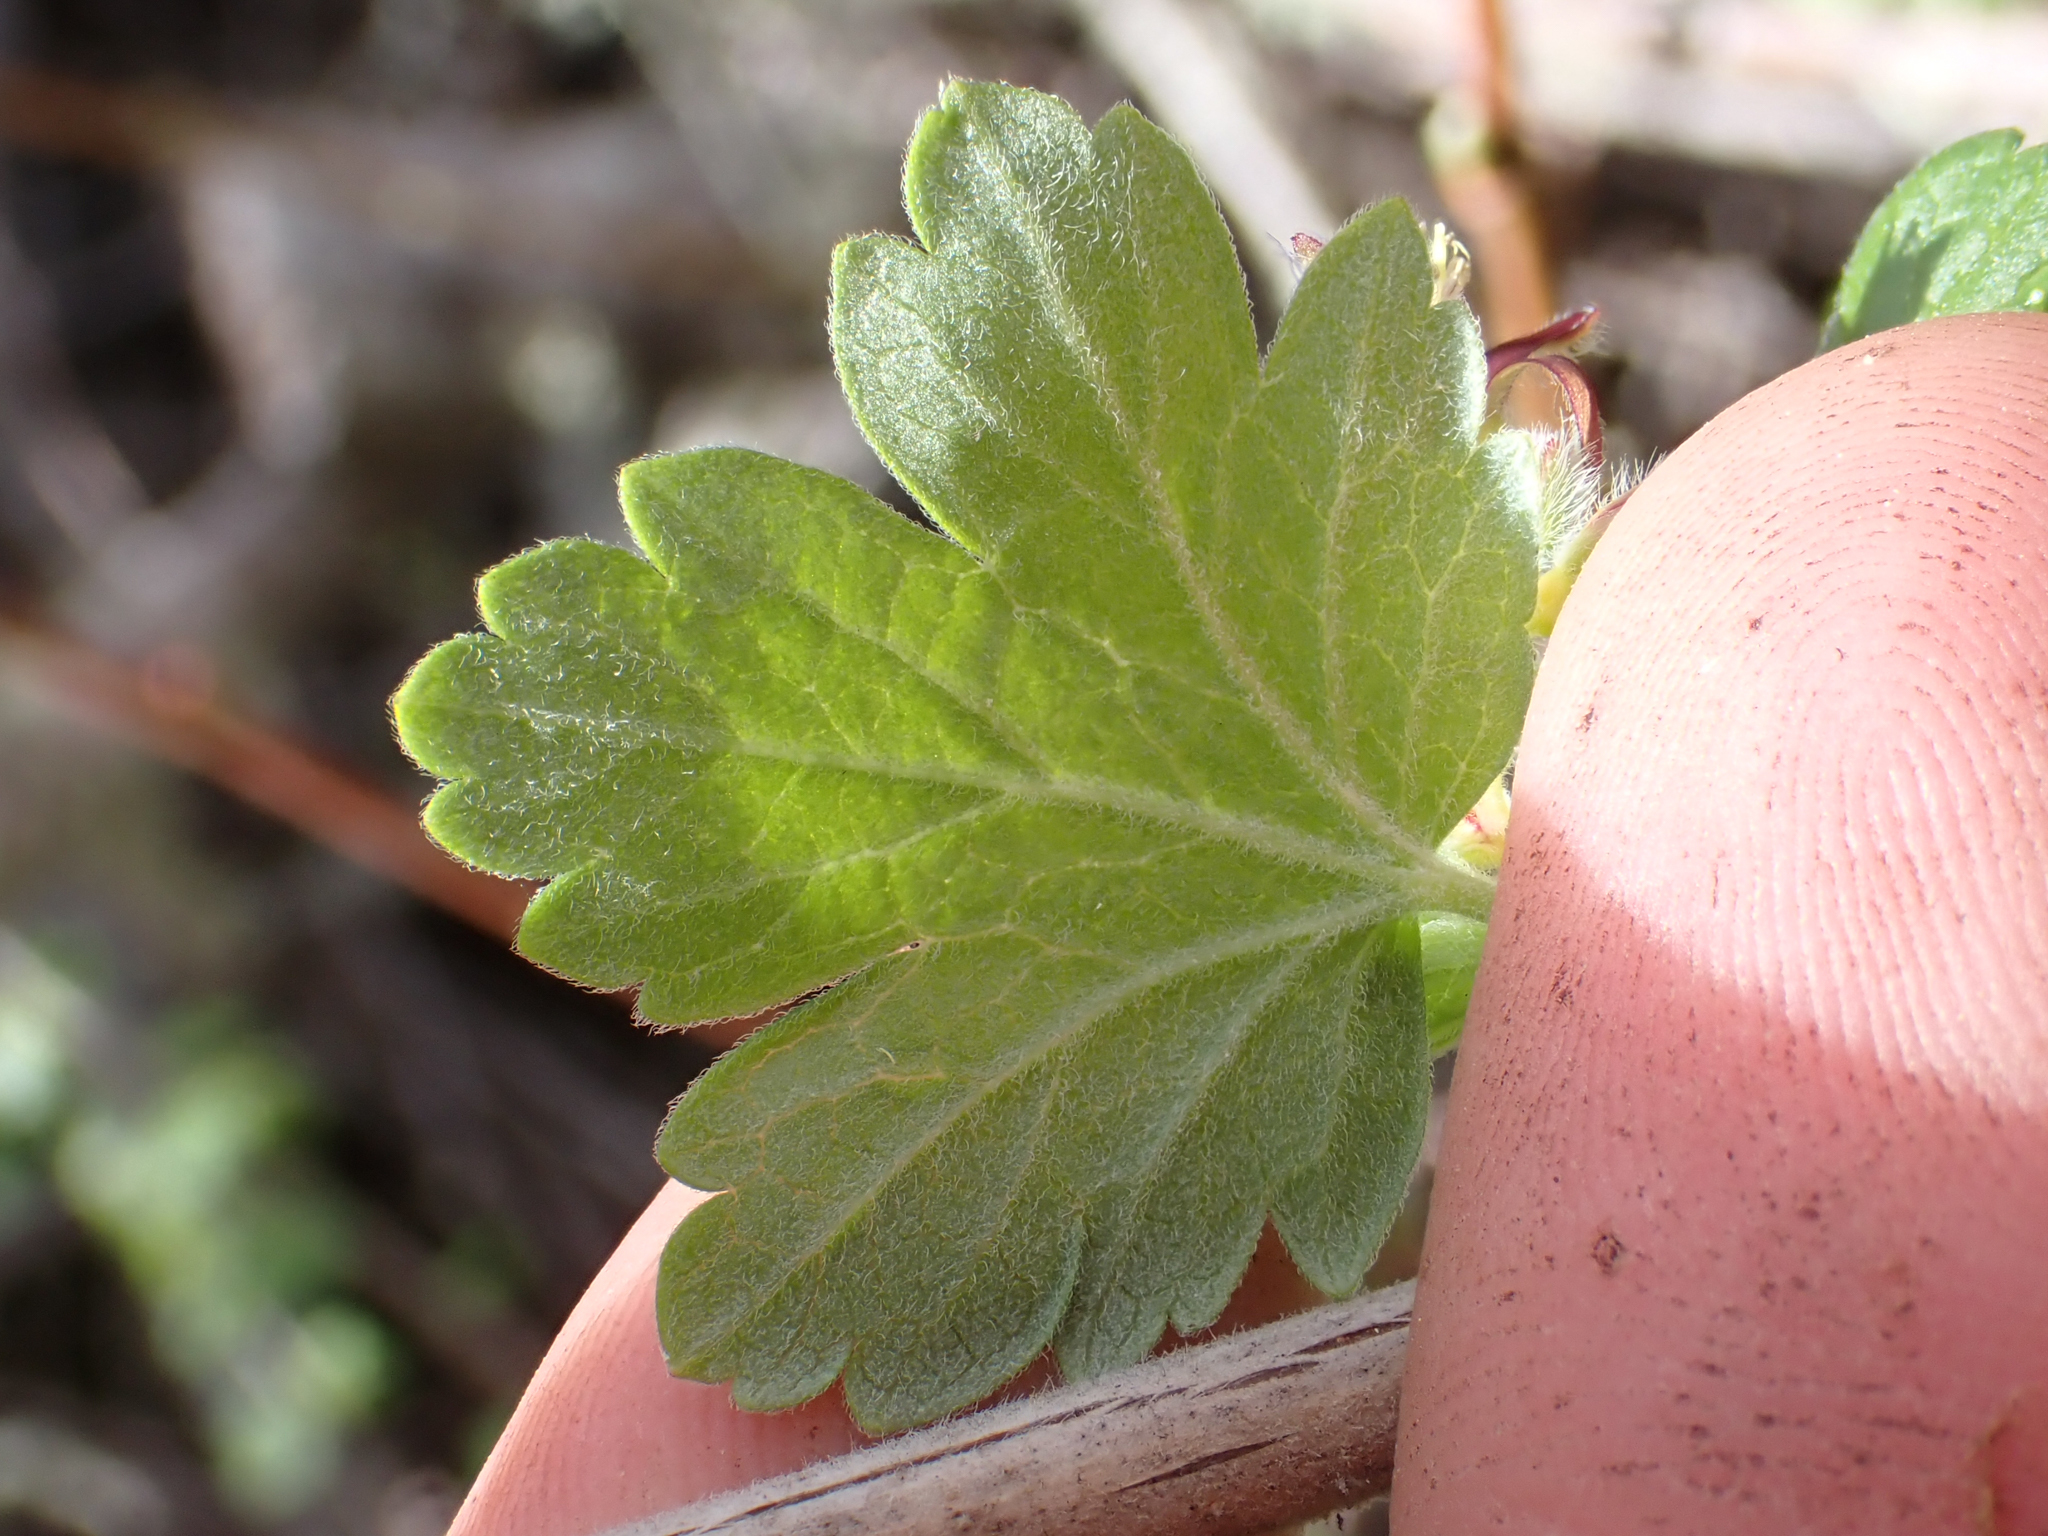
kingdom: Plantae
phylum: Tracheophyta
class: Magnoliopsida
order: Saxifragales
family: Grossulariaceae
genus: Ribes
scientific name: Ribes divaricatum
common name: Wild black gooseberry
